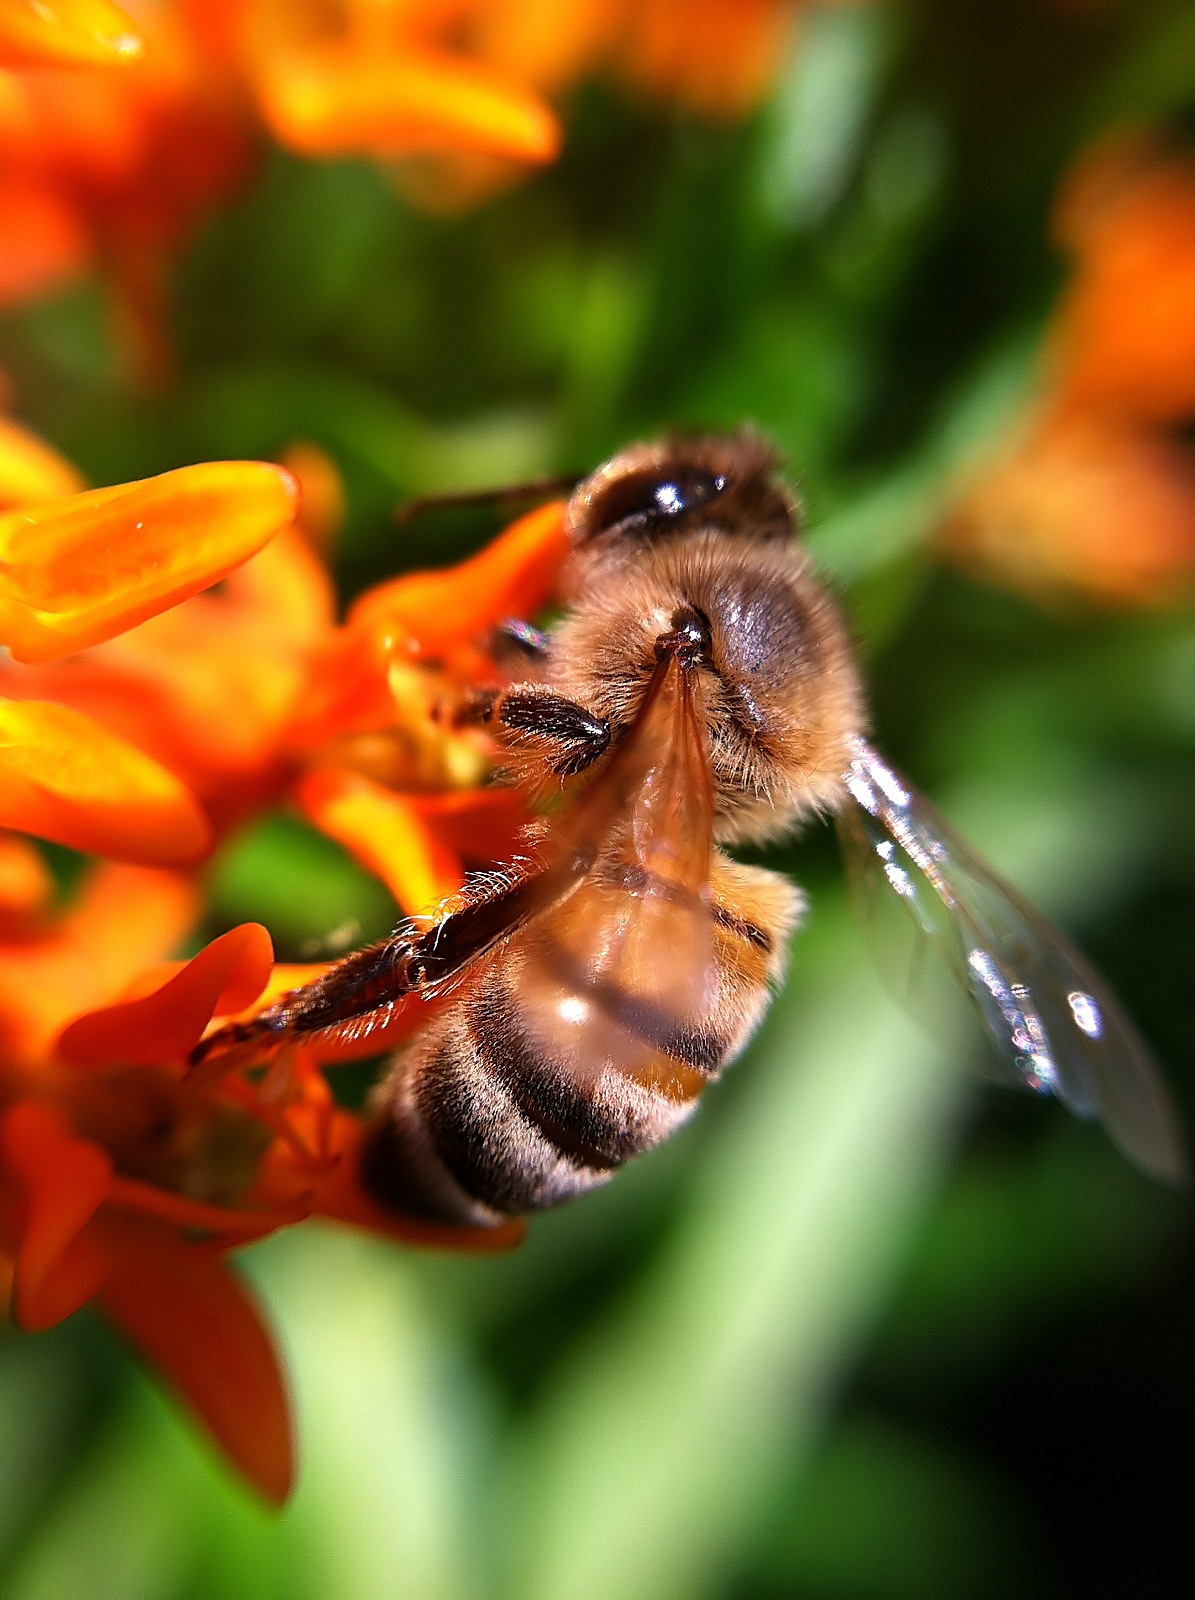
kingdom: Animalia
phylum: Arthropoda
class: Insecta
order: Hymenoptera
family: Apidae
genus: Apis
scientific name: Apis mellifera
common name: Honey bee
